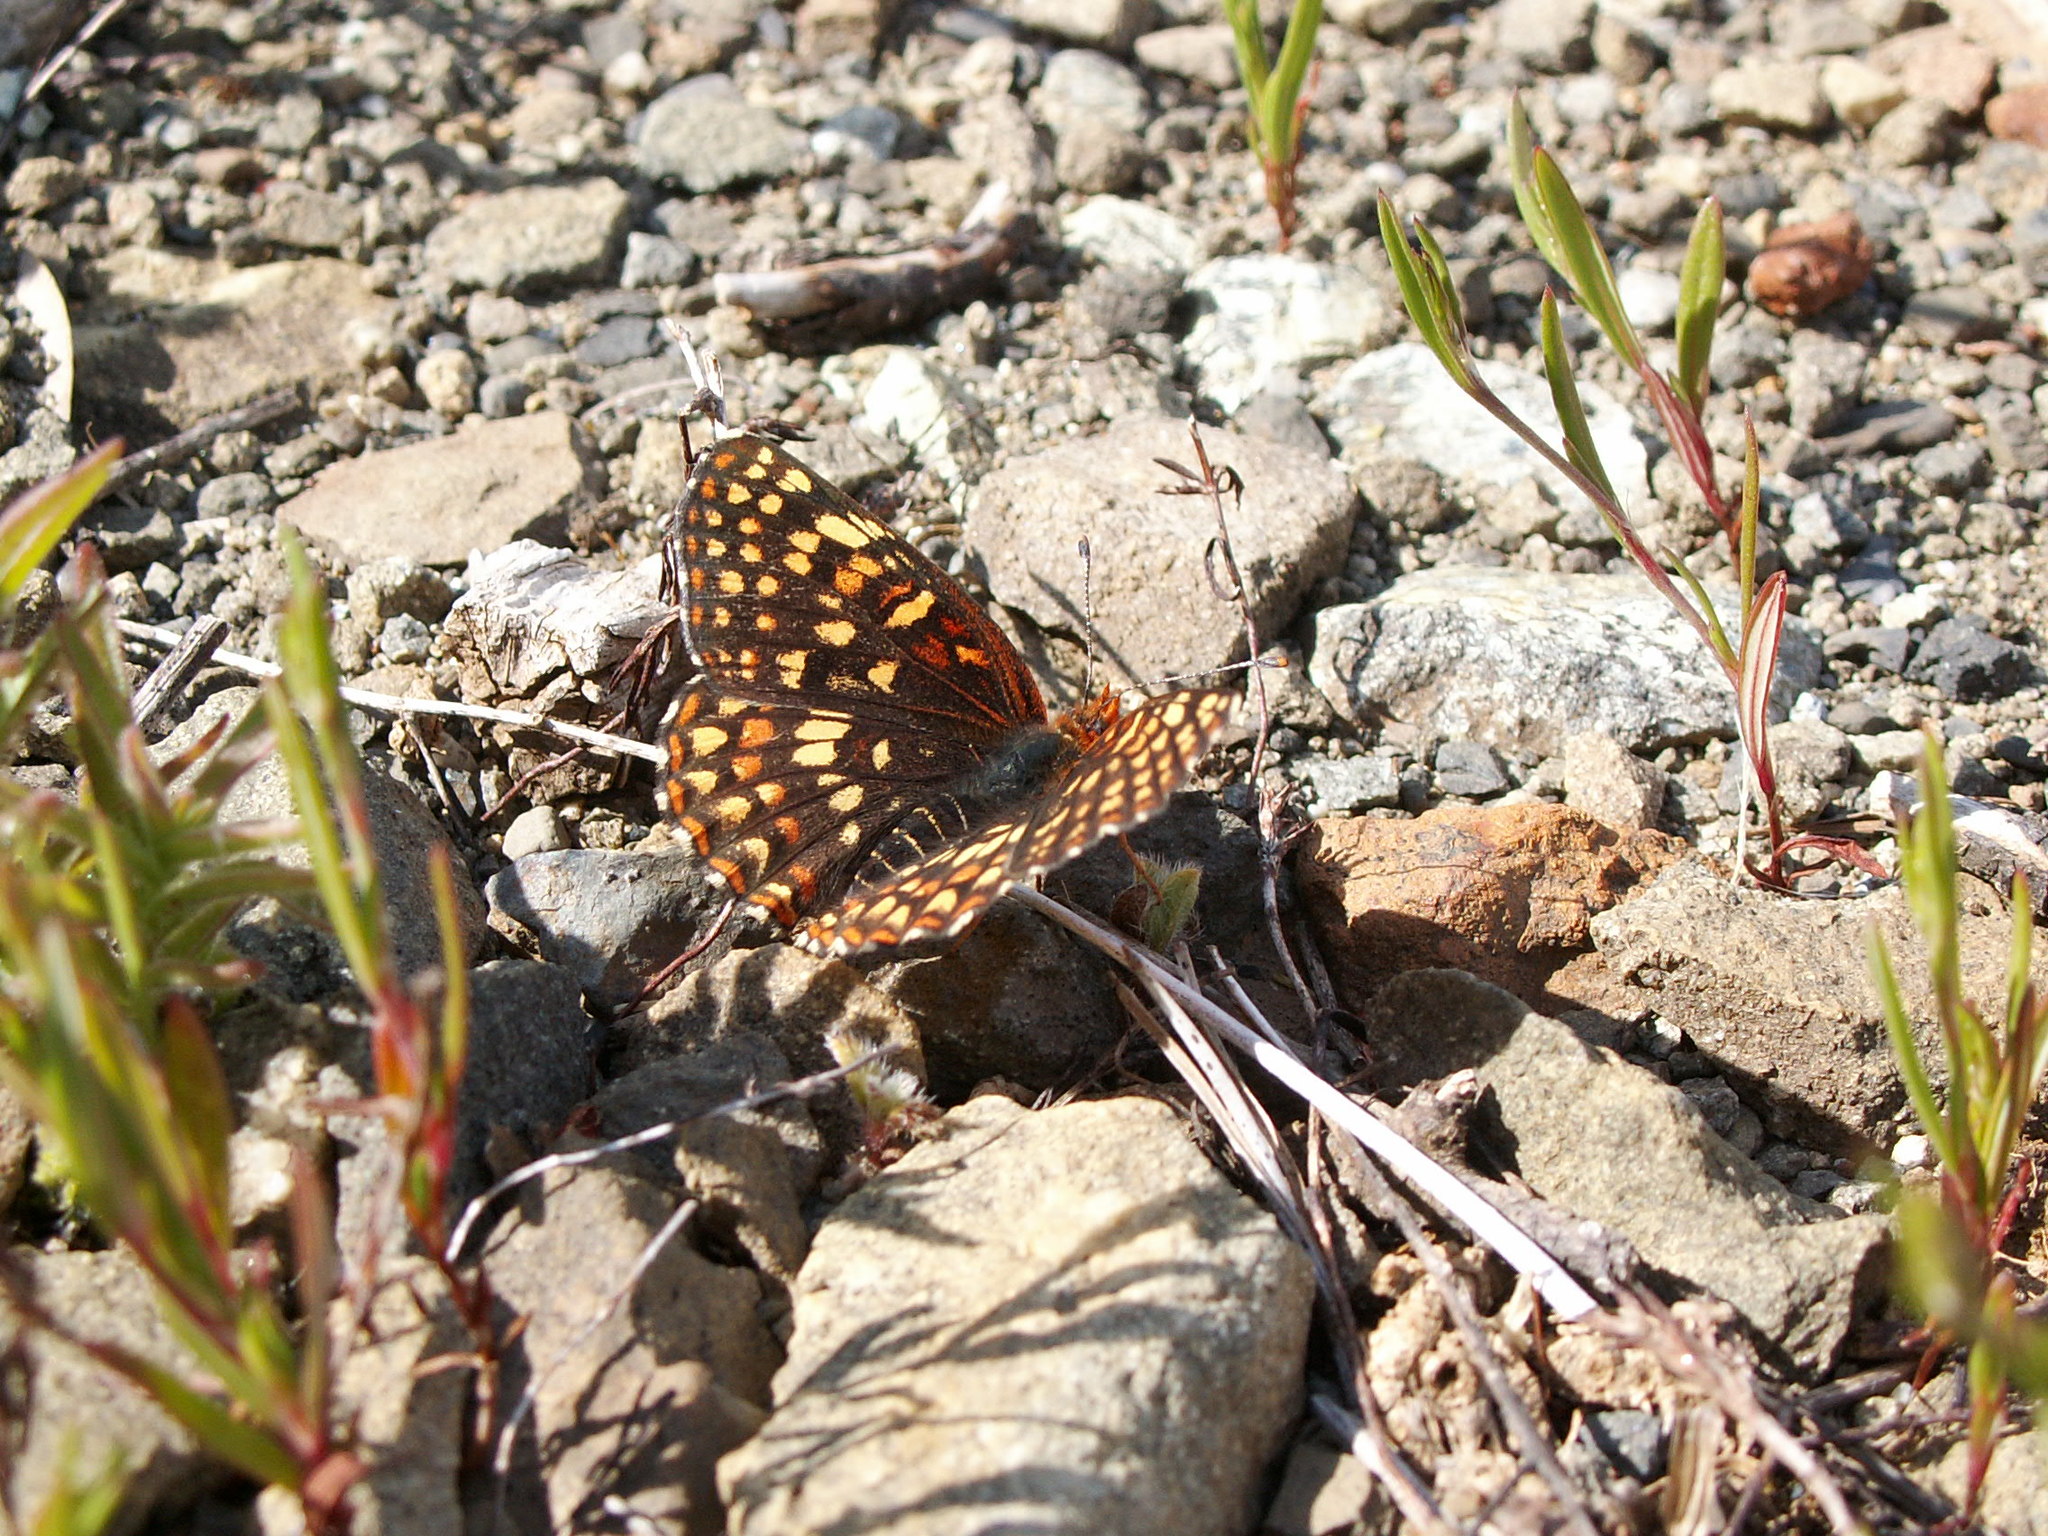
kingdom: Animalia
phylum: Arthropoda
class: Insecta
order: Lepidoptera
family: Nymphalidae
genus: Chlosyne
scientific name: Chlosyne palla
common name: Northern checkerspot
